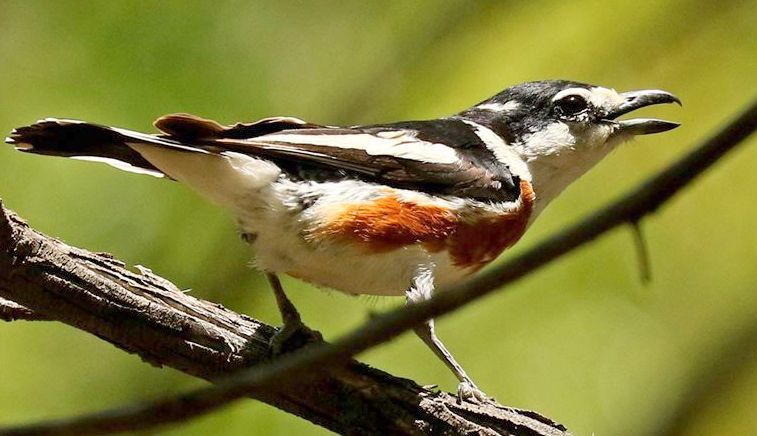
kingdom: Animalia
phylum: Chordata
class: Aves
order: Passeriformes
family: Malaconotidae
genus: Nilaus
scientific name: Nilaus afer
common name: Brubru
